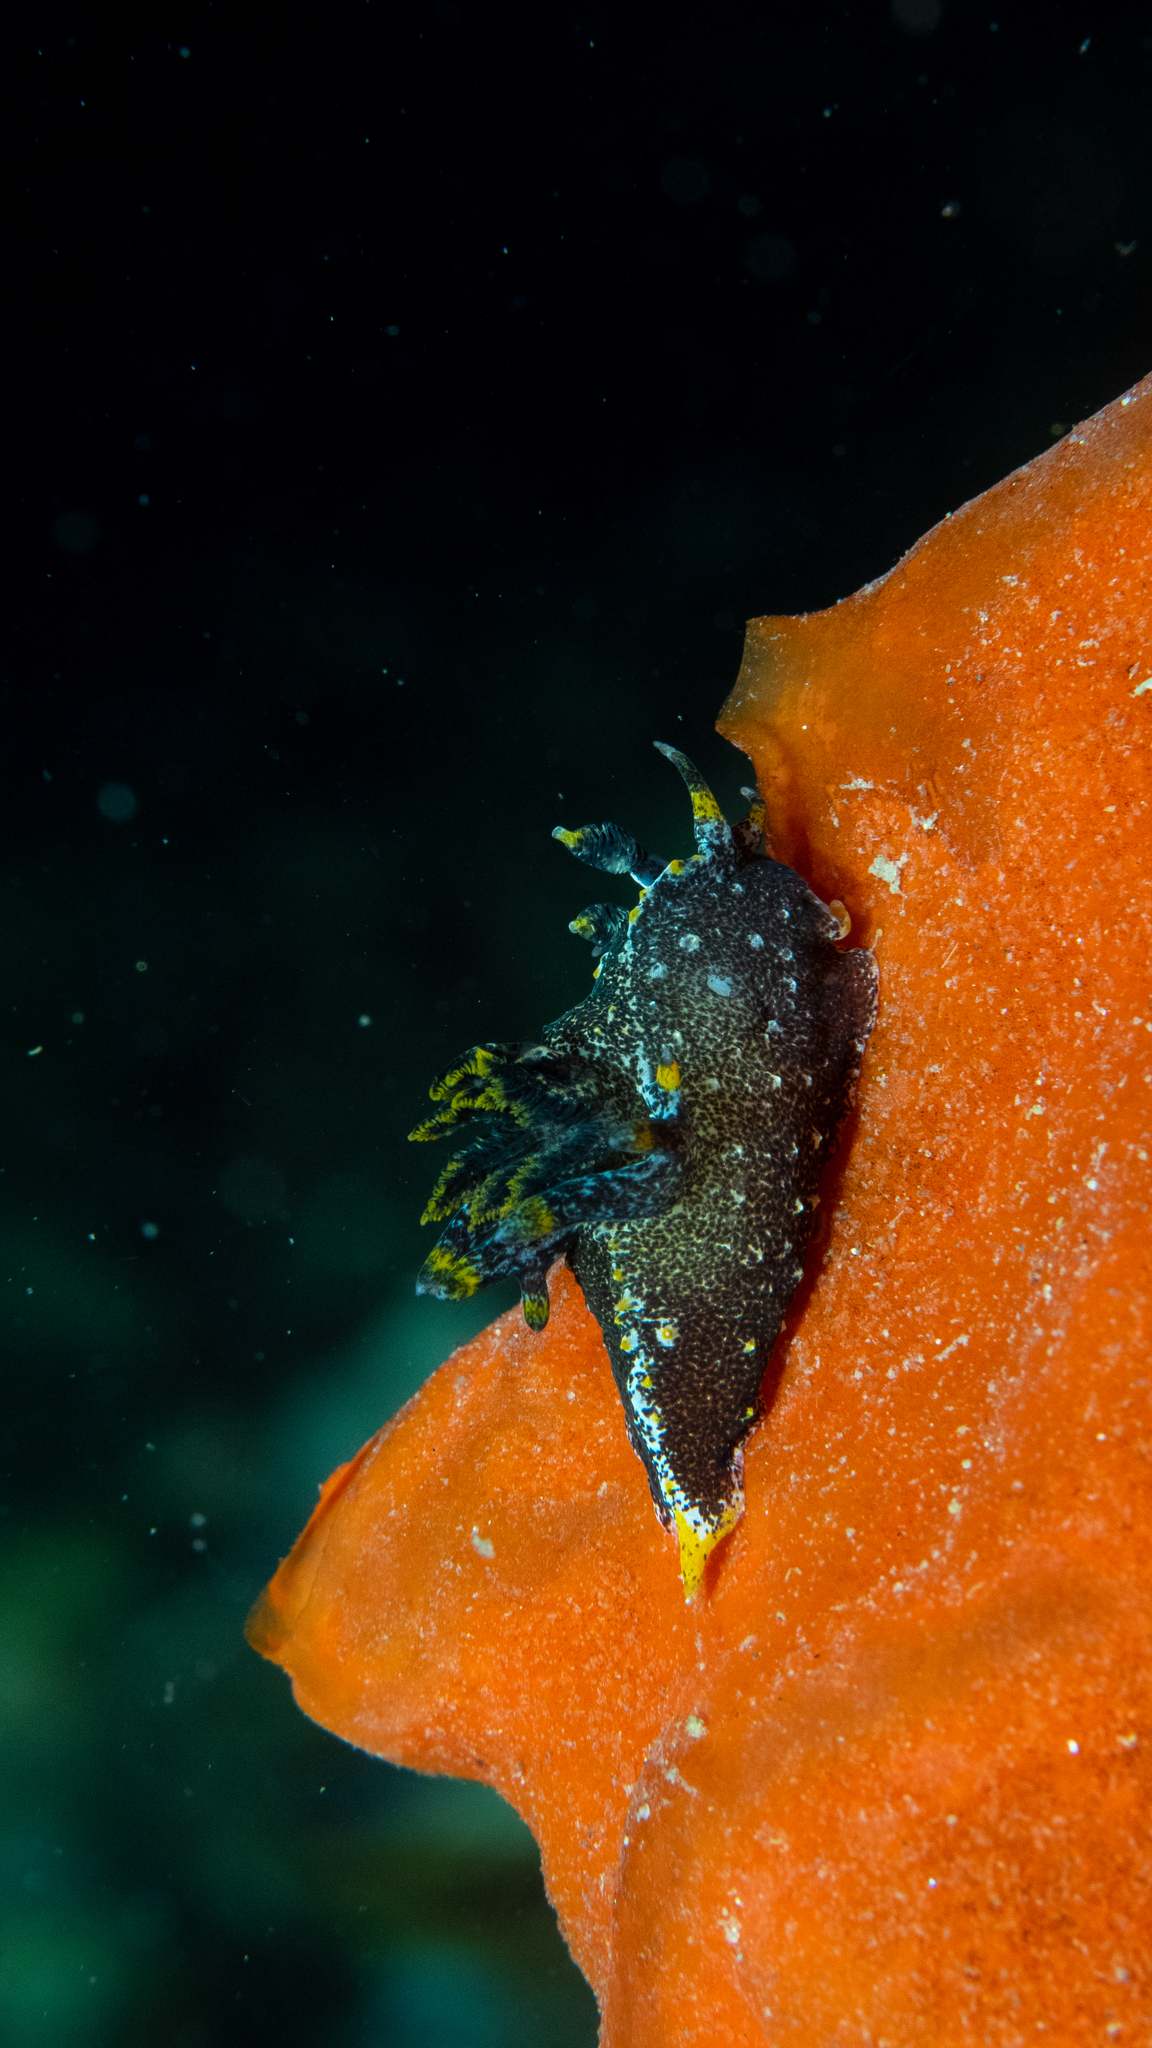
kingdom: Animalia
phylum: Mollusca
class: Gastropoda
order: Nudibranchia
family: Polyceridae
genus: Polycera
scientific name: Polycera hedgpethi
